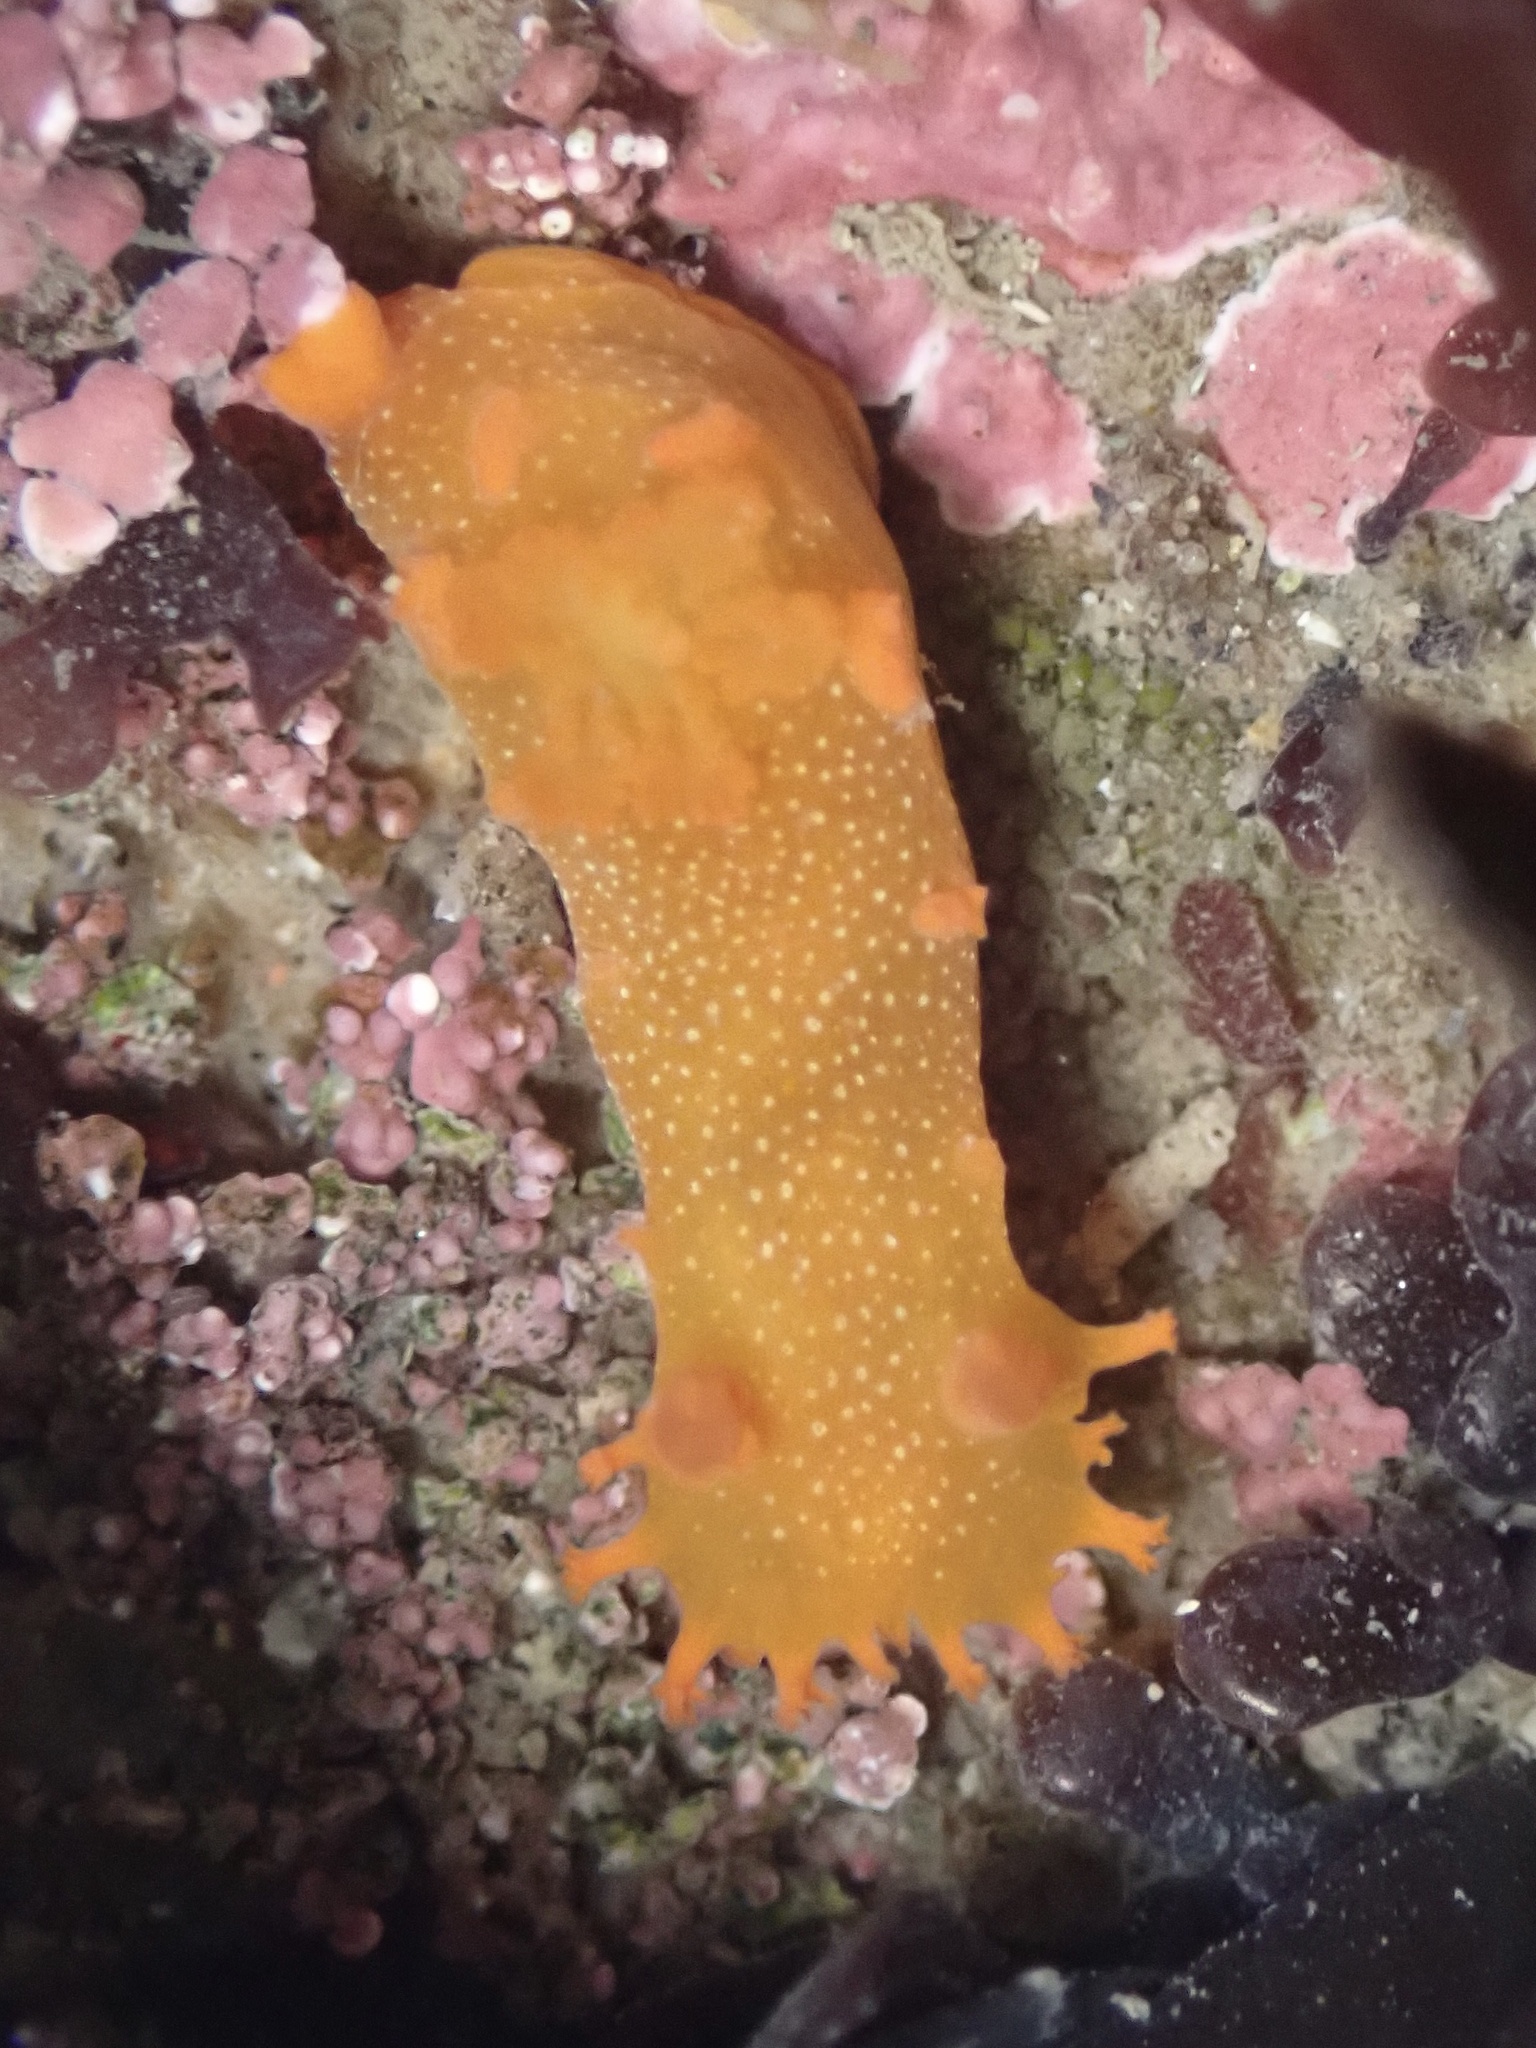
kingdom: Animalia
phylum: Mollusca
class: Gastropoda
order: Nudibranchia
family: Polyceridae
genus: Triopha
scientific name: Triopha maculata
